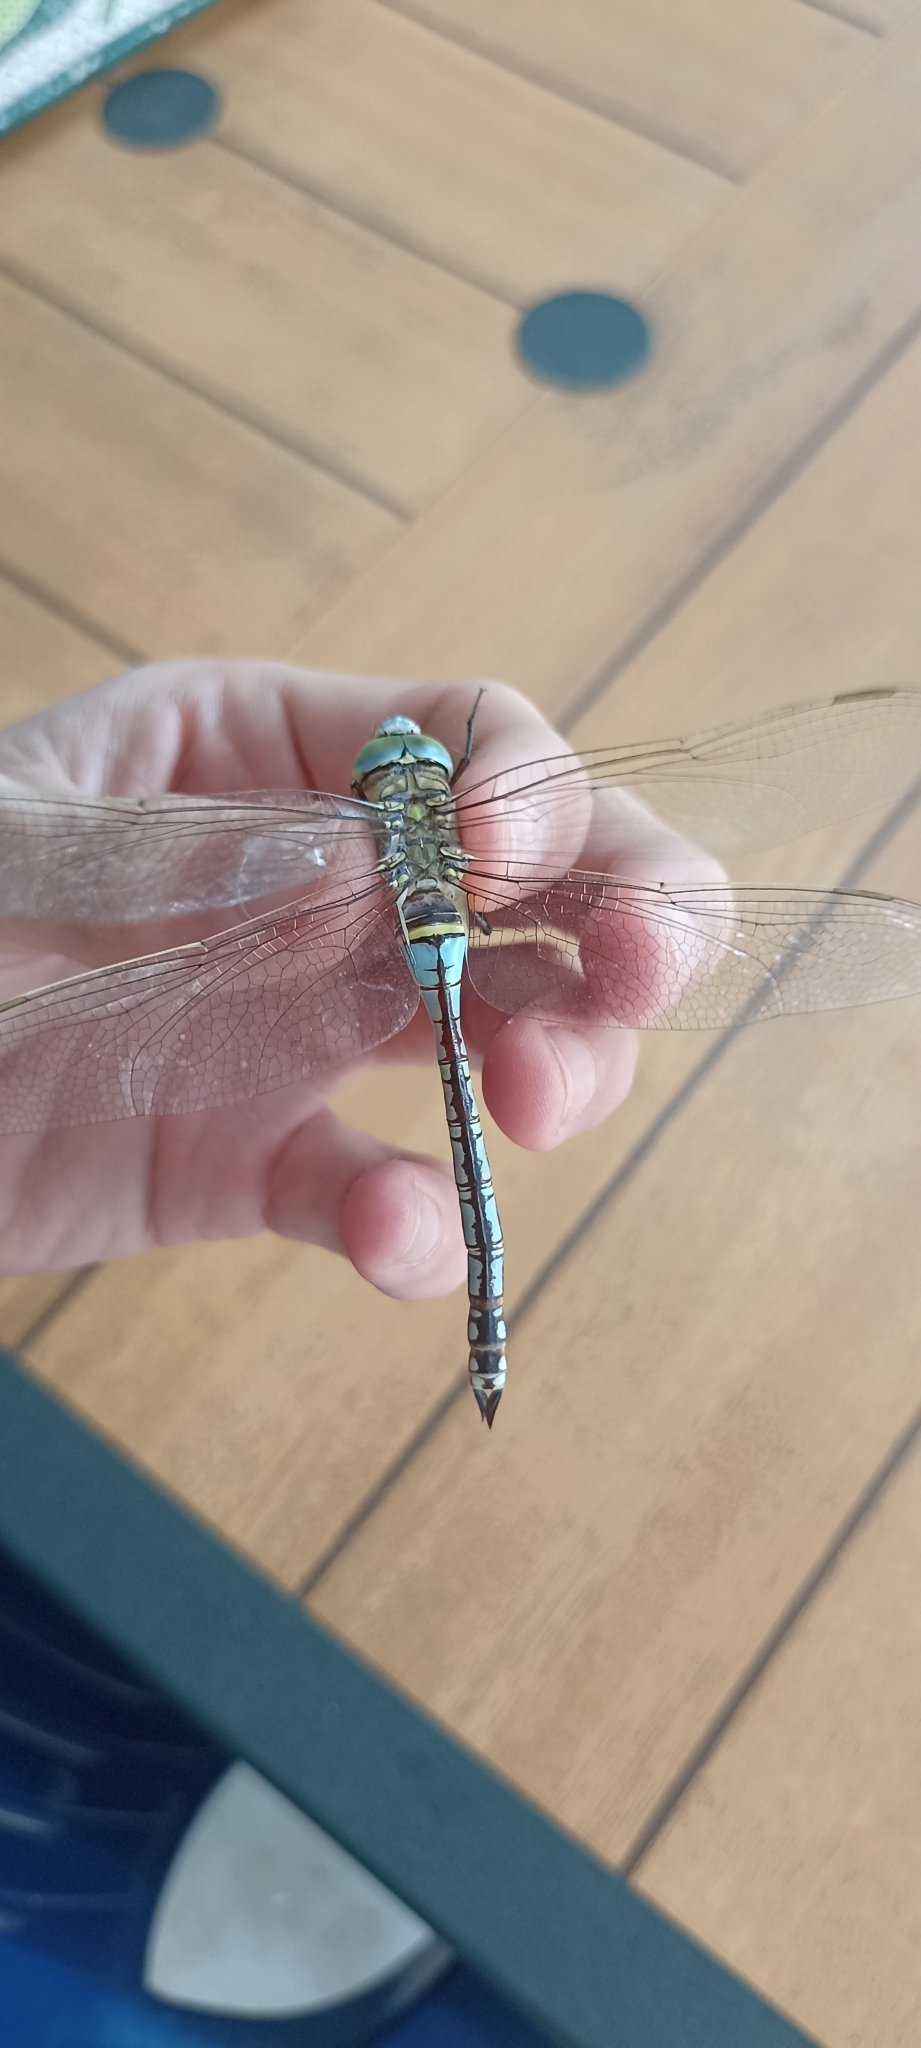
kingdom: Animalia
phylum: Arthropoda
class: Insecta
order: Odonata
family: Aeshnidae
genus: Anax
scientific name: Anax parthenope
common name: Lesser emperor
